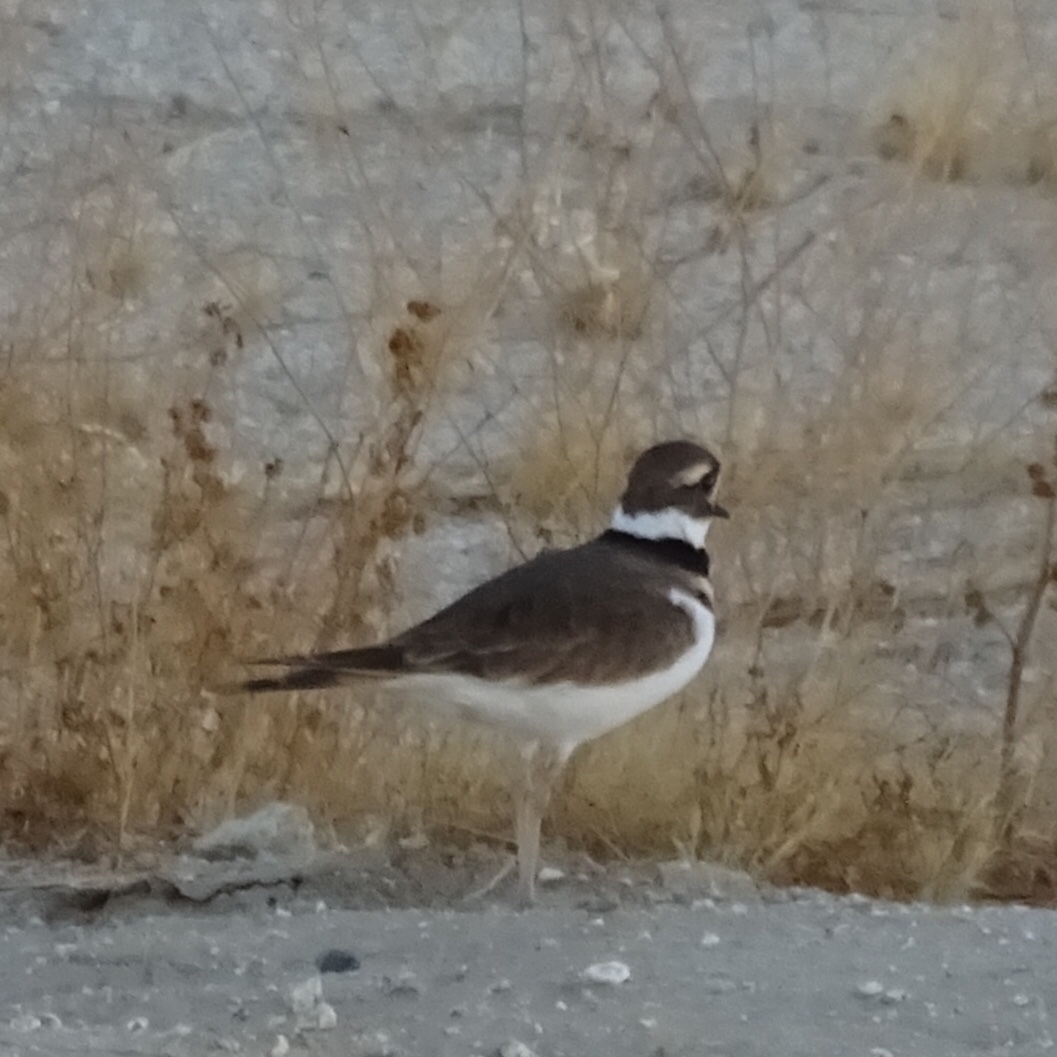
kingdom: Animalia
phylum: Chordata
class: Aves
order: Charadriiformes
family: Charadriidae
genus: Charadrius
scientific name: Charadrius vociferus
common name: Killdeer
